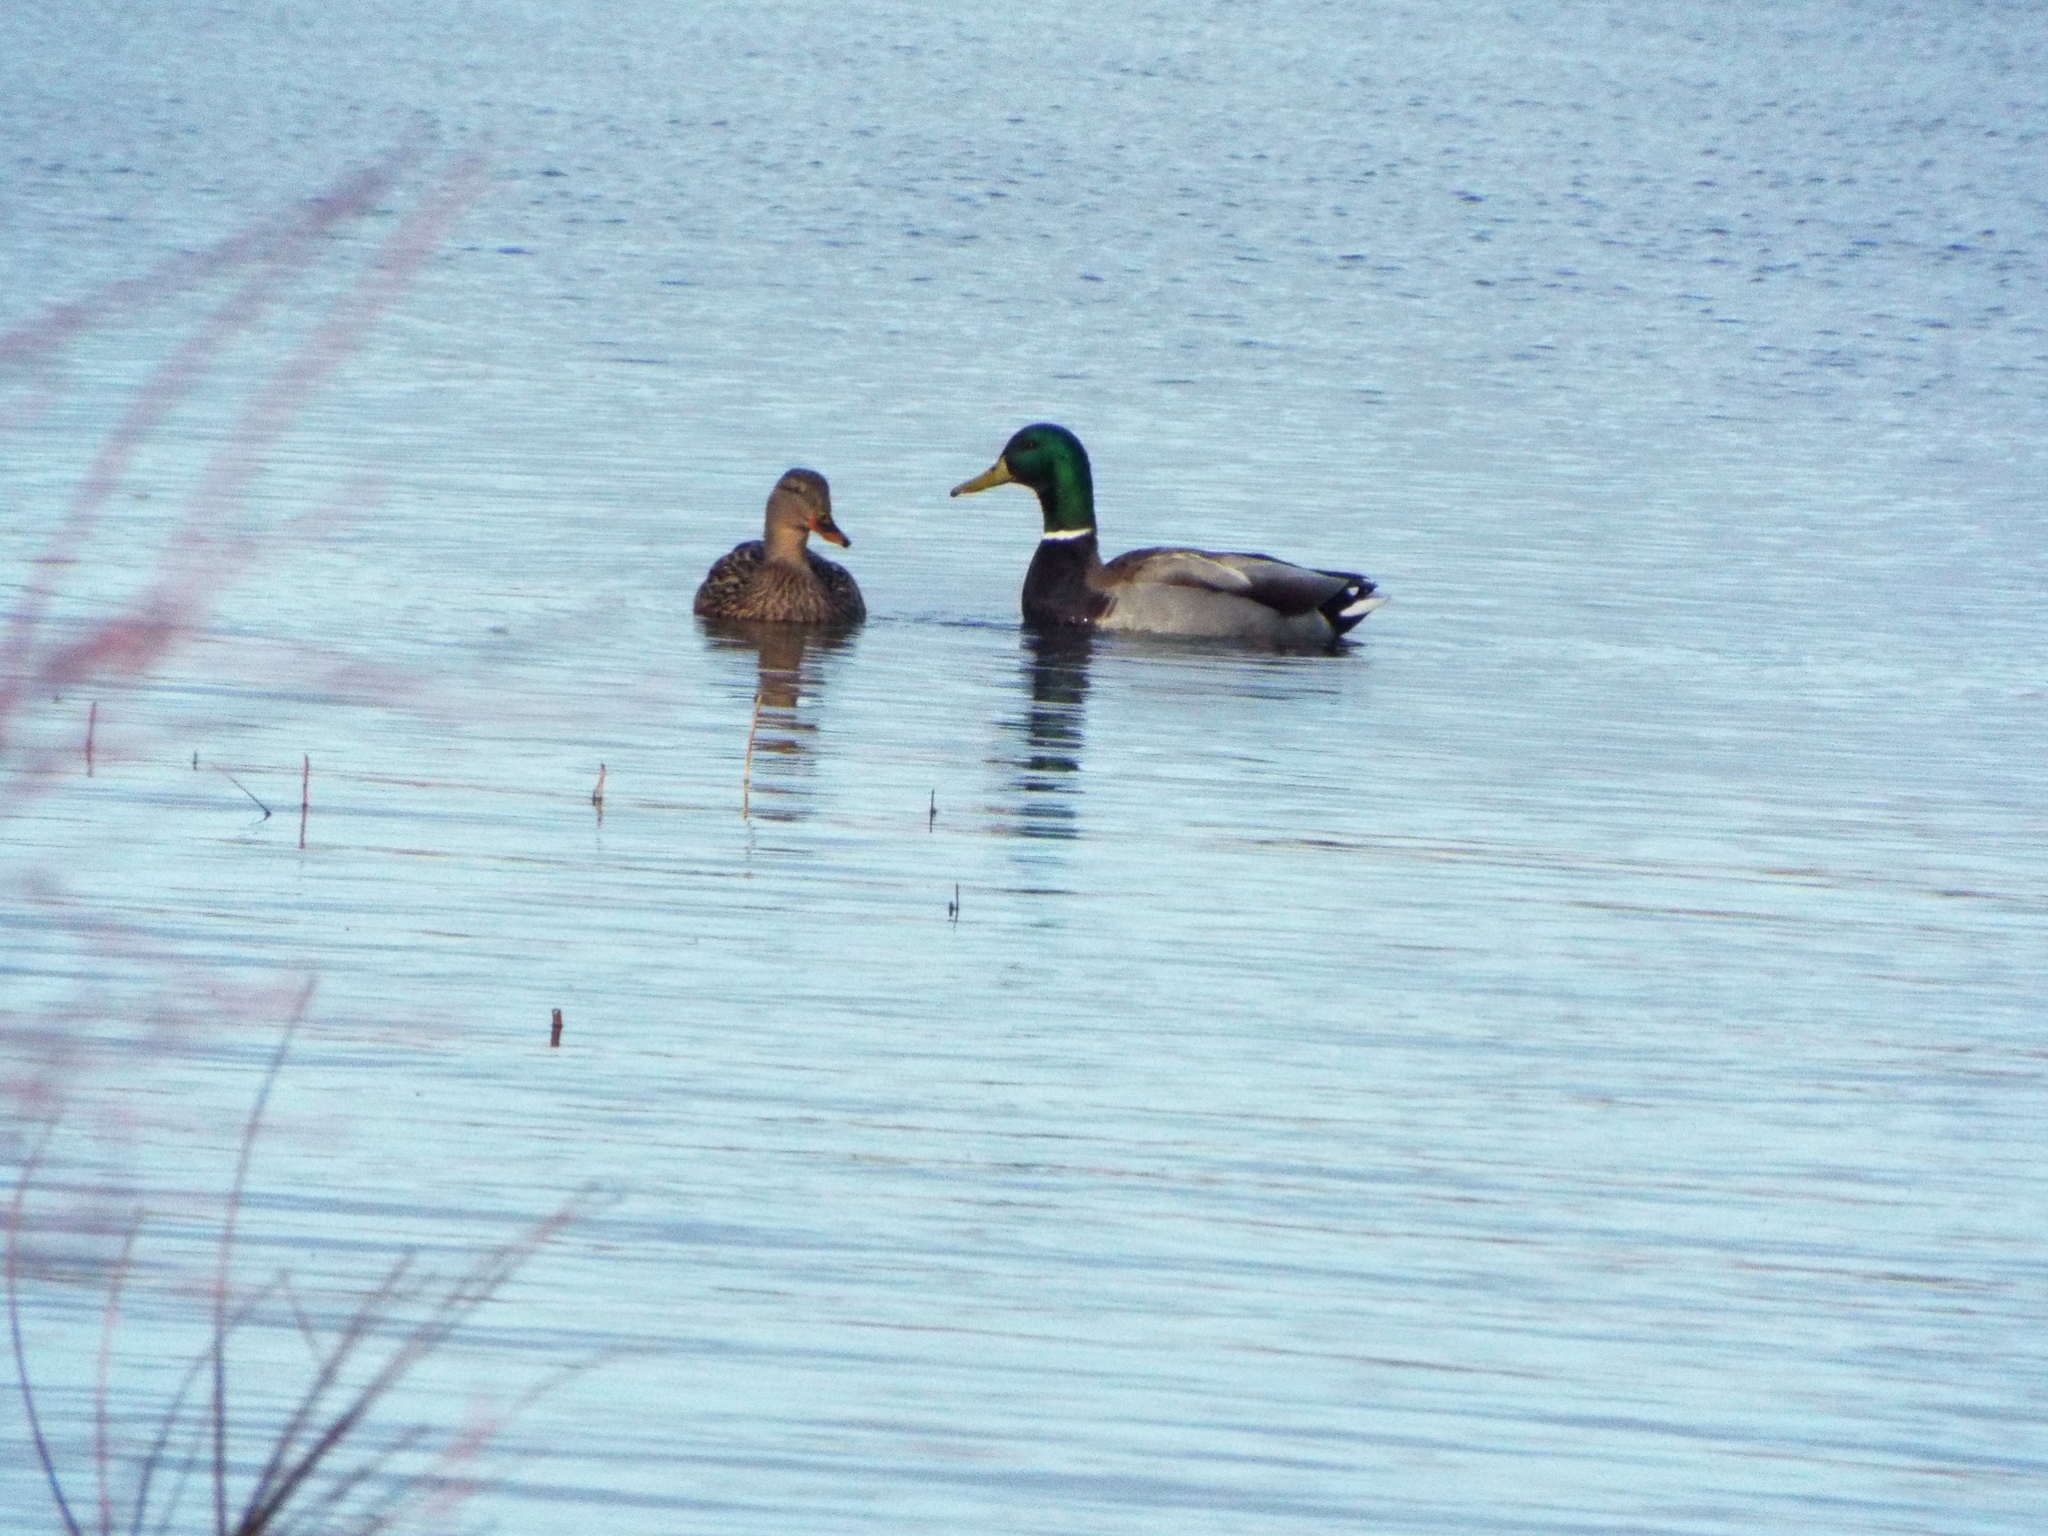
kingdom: Animalia
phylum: Chordata
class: Aves
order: Anseriformes
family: Anatidae
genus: Anas
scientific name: Anas platyrhynchos
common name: Mallard
